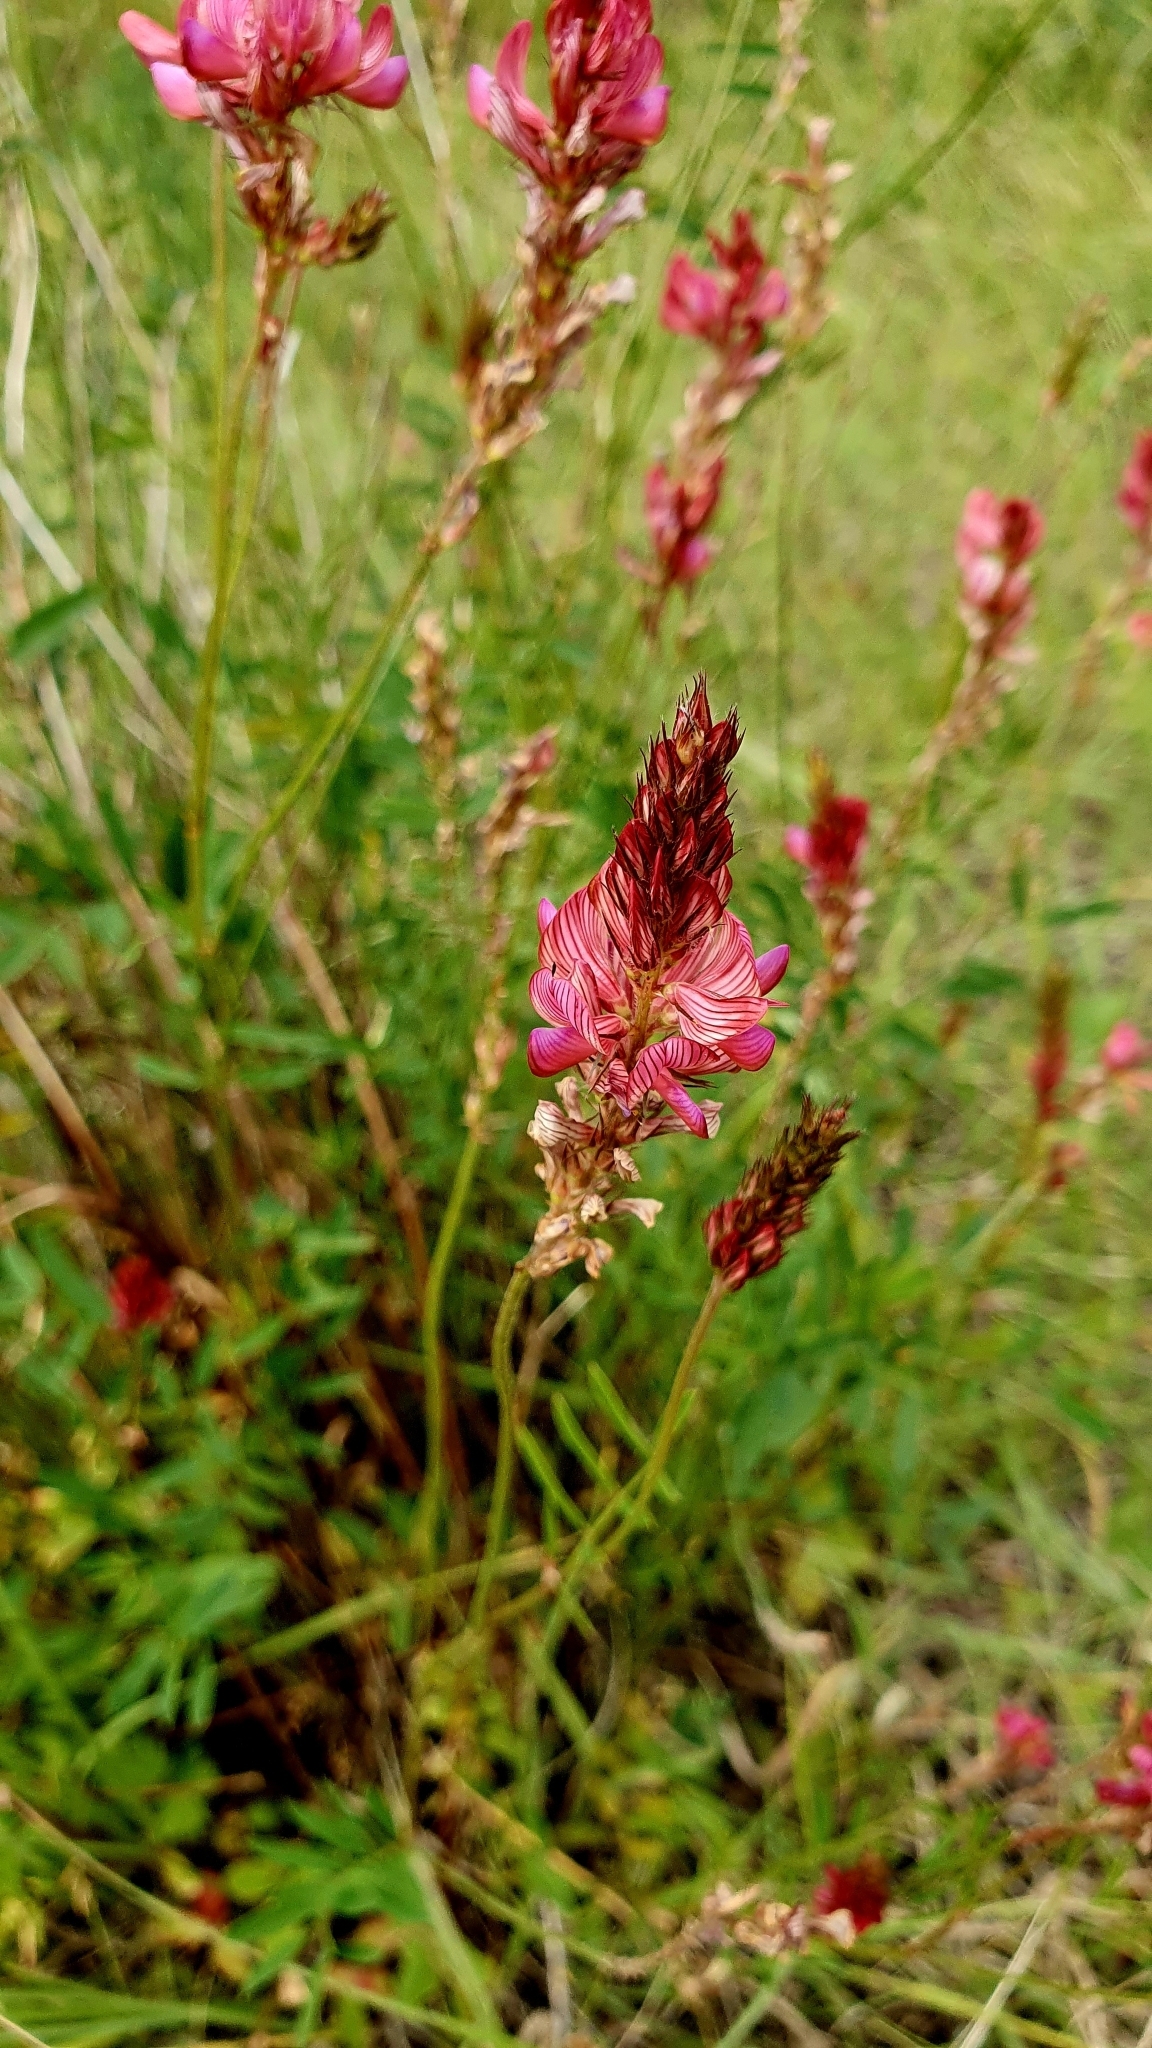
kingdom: Plantae
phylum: Tracheophyta
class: Magnoliopsida
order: Fabales
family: Fabaceae
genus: Onobrychis
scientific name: Onobrychis viciifolia
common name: Sainfoin
